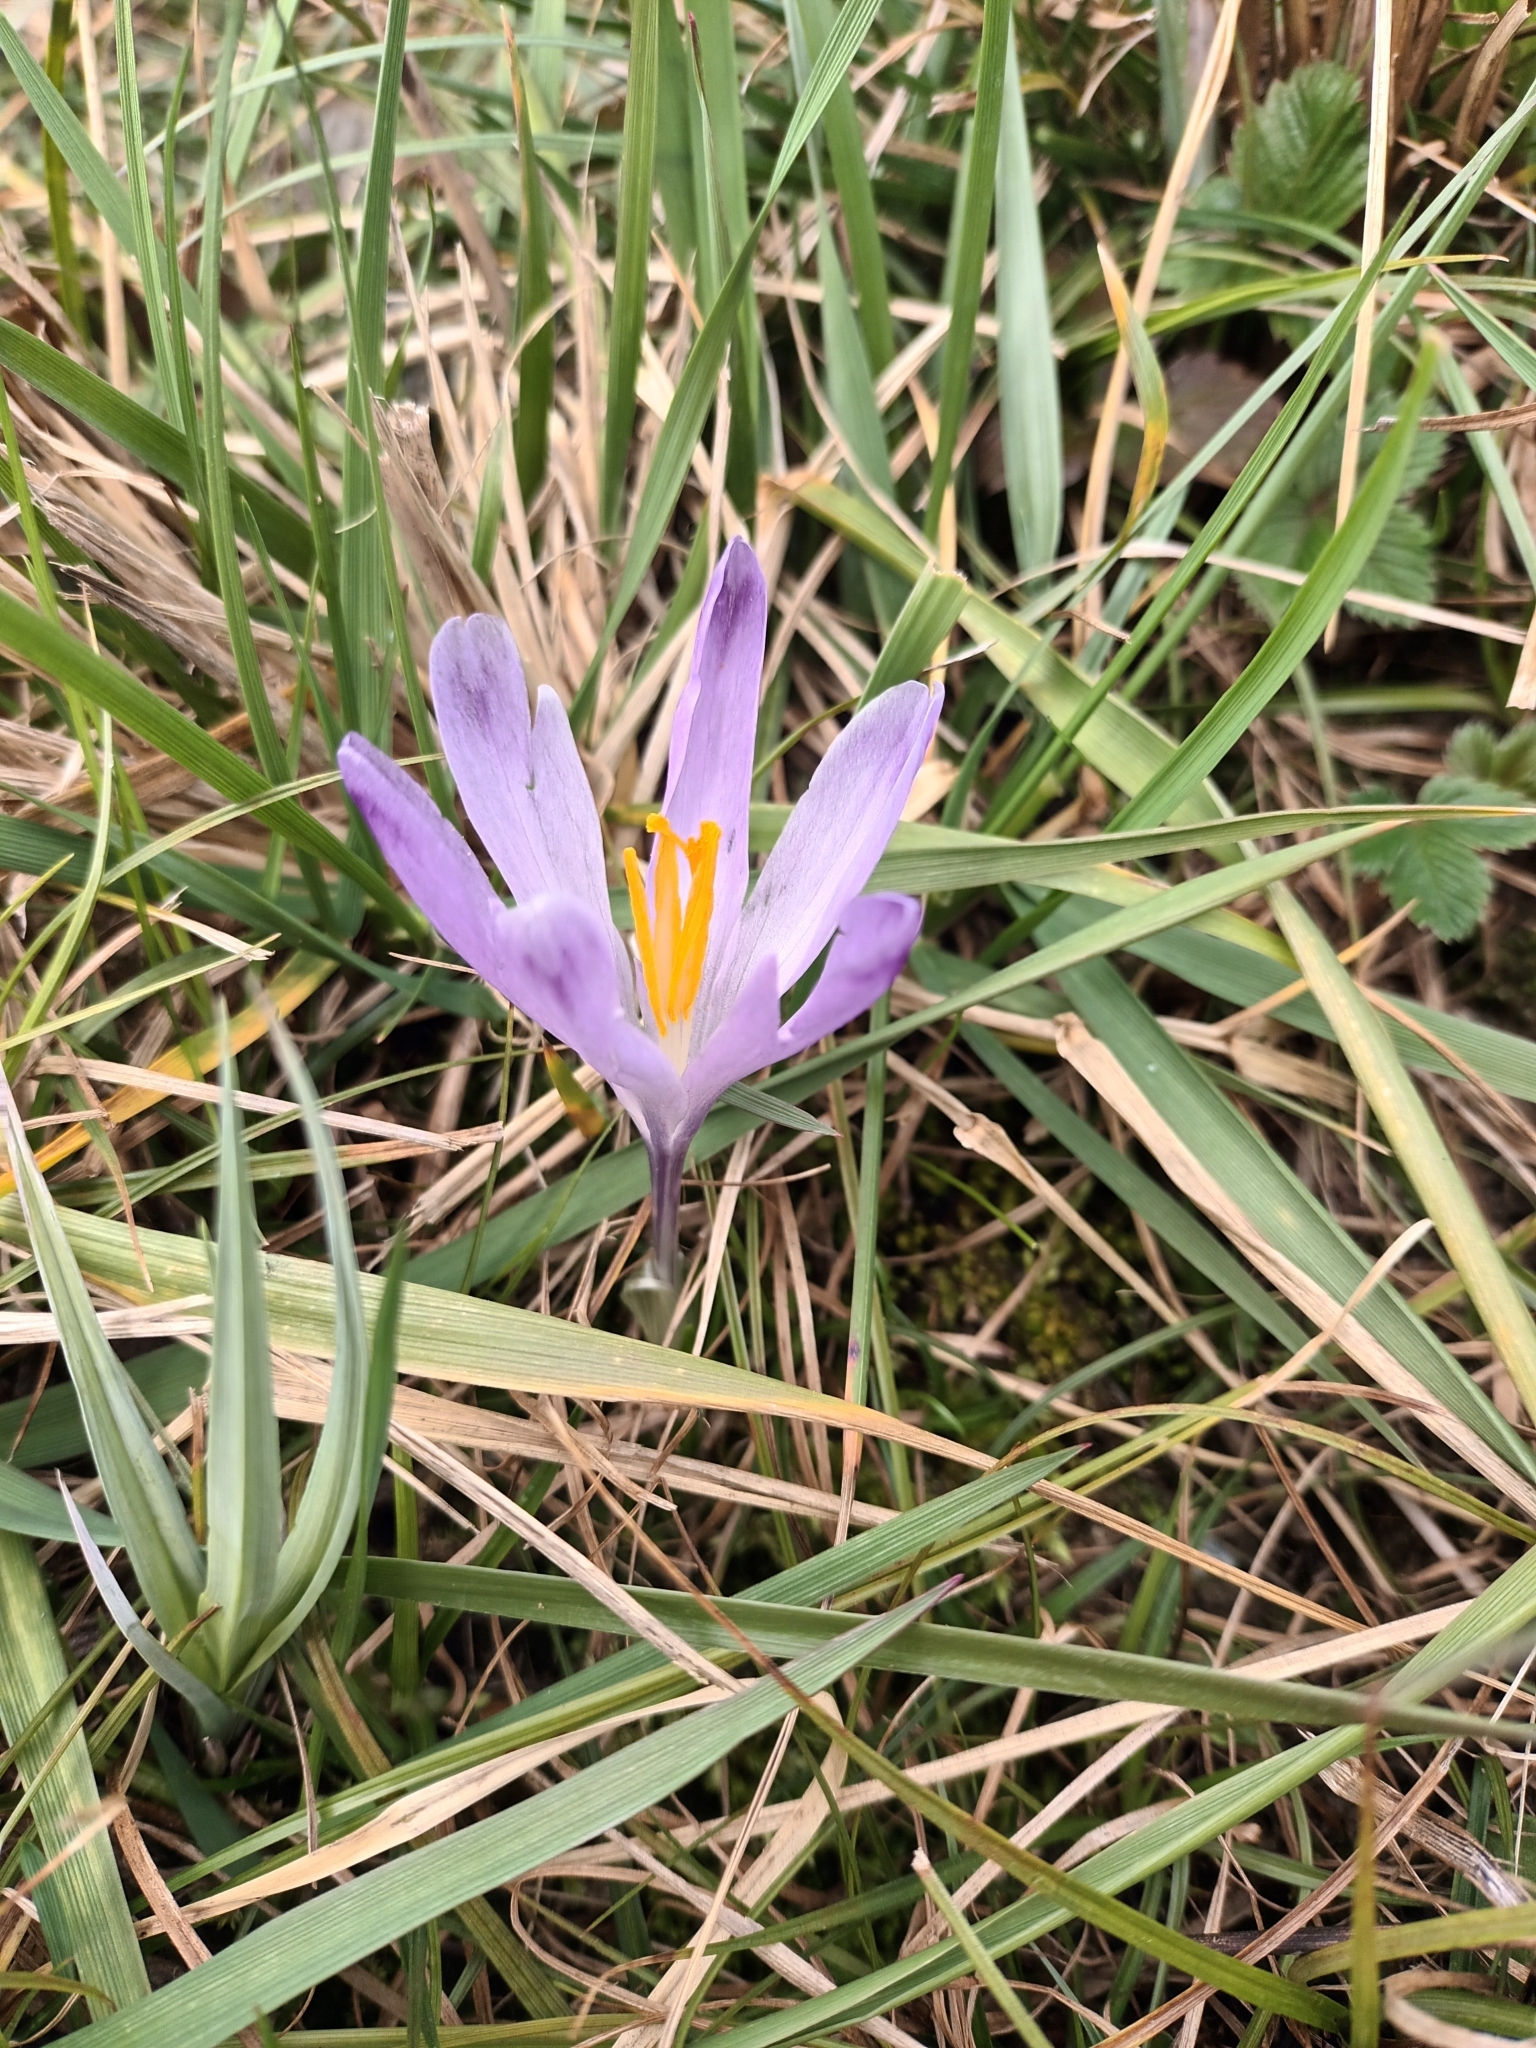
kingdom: Plantae
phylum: Tracheophyta
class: Liliopsida
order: Asparagales
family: Iridaceae
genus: Crocus
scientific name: Crocus heuffelianus
